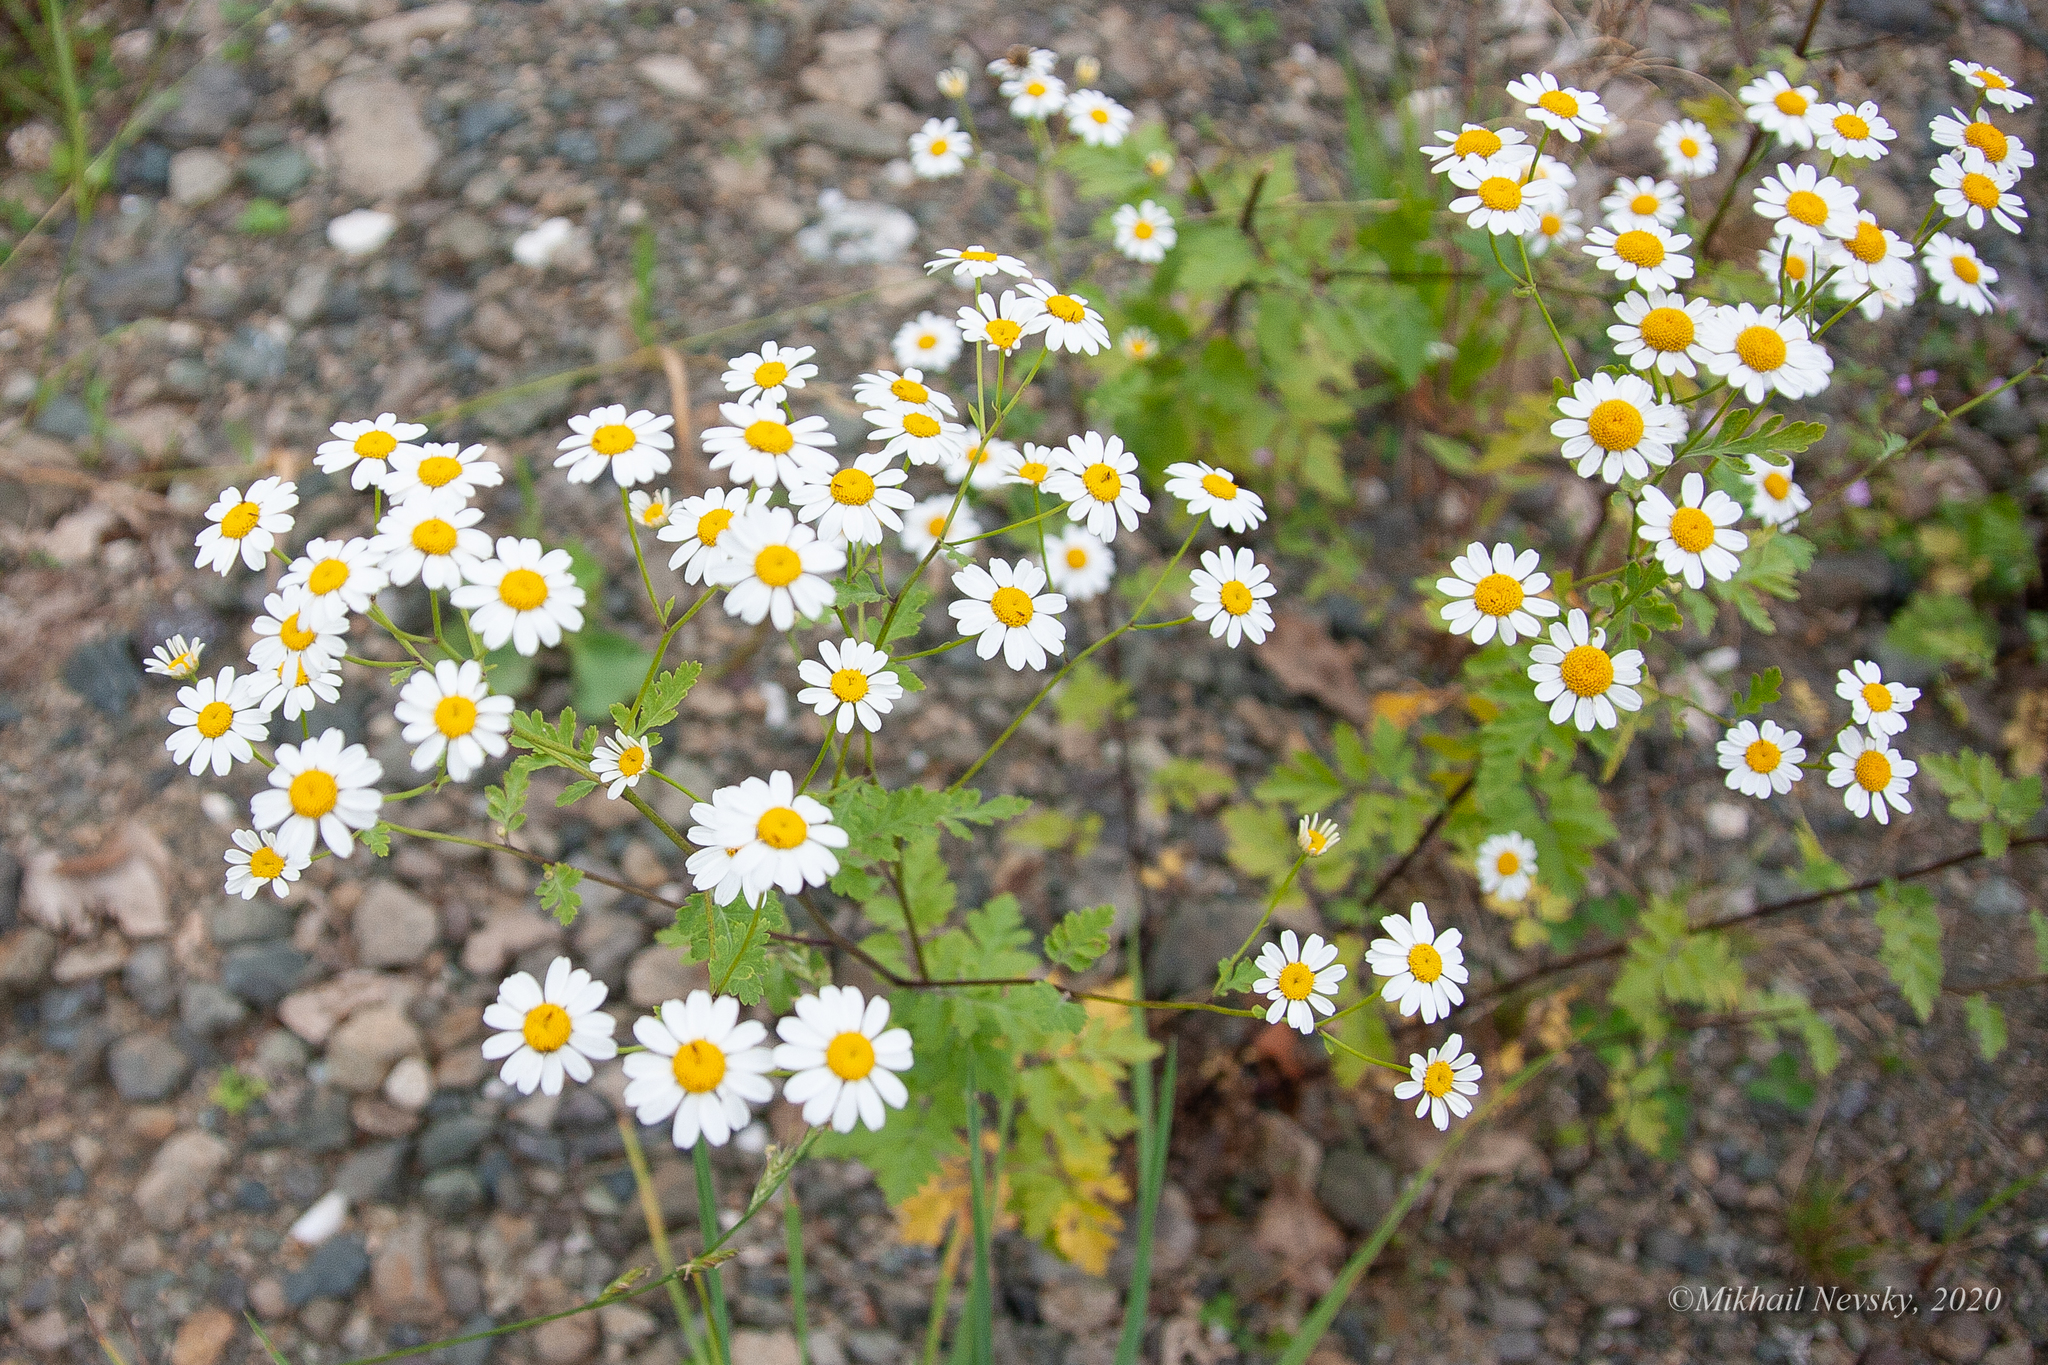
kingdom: Plantae
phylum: Tracheophyta
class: Magnoliopsida
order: Asterales
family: Asteraceae
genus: Tanacetum
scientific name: Tanacetum partheniifolium
